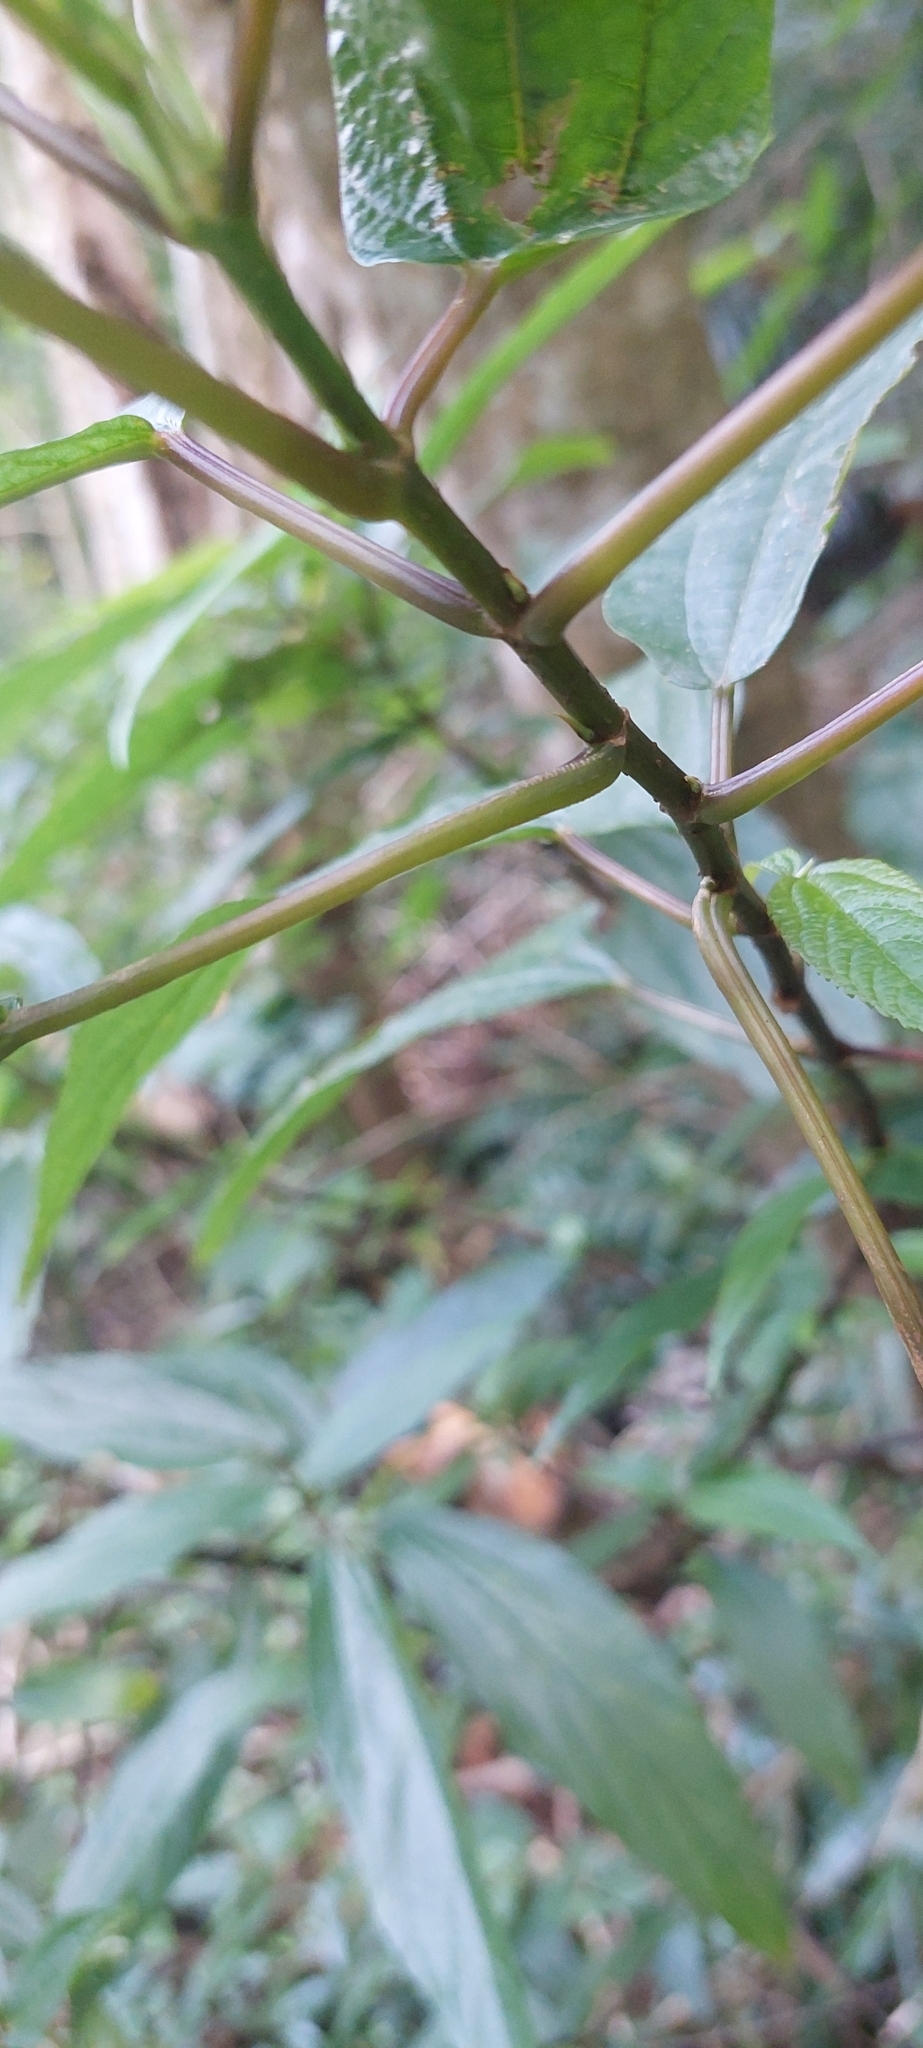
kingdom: Plantae
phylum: Tracheophyta
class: Magnoliopsida
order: Rosales
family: Urticaceae
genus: Boehmeria
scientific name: Boehmeria zollingeriana
